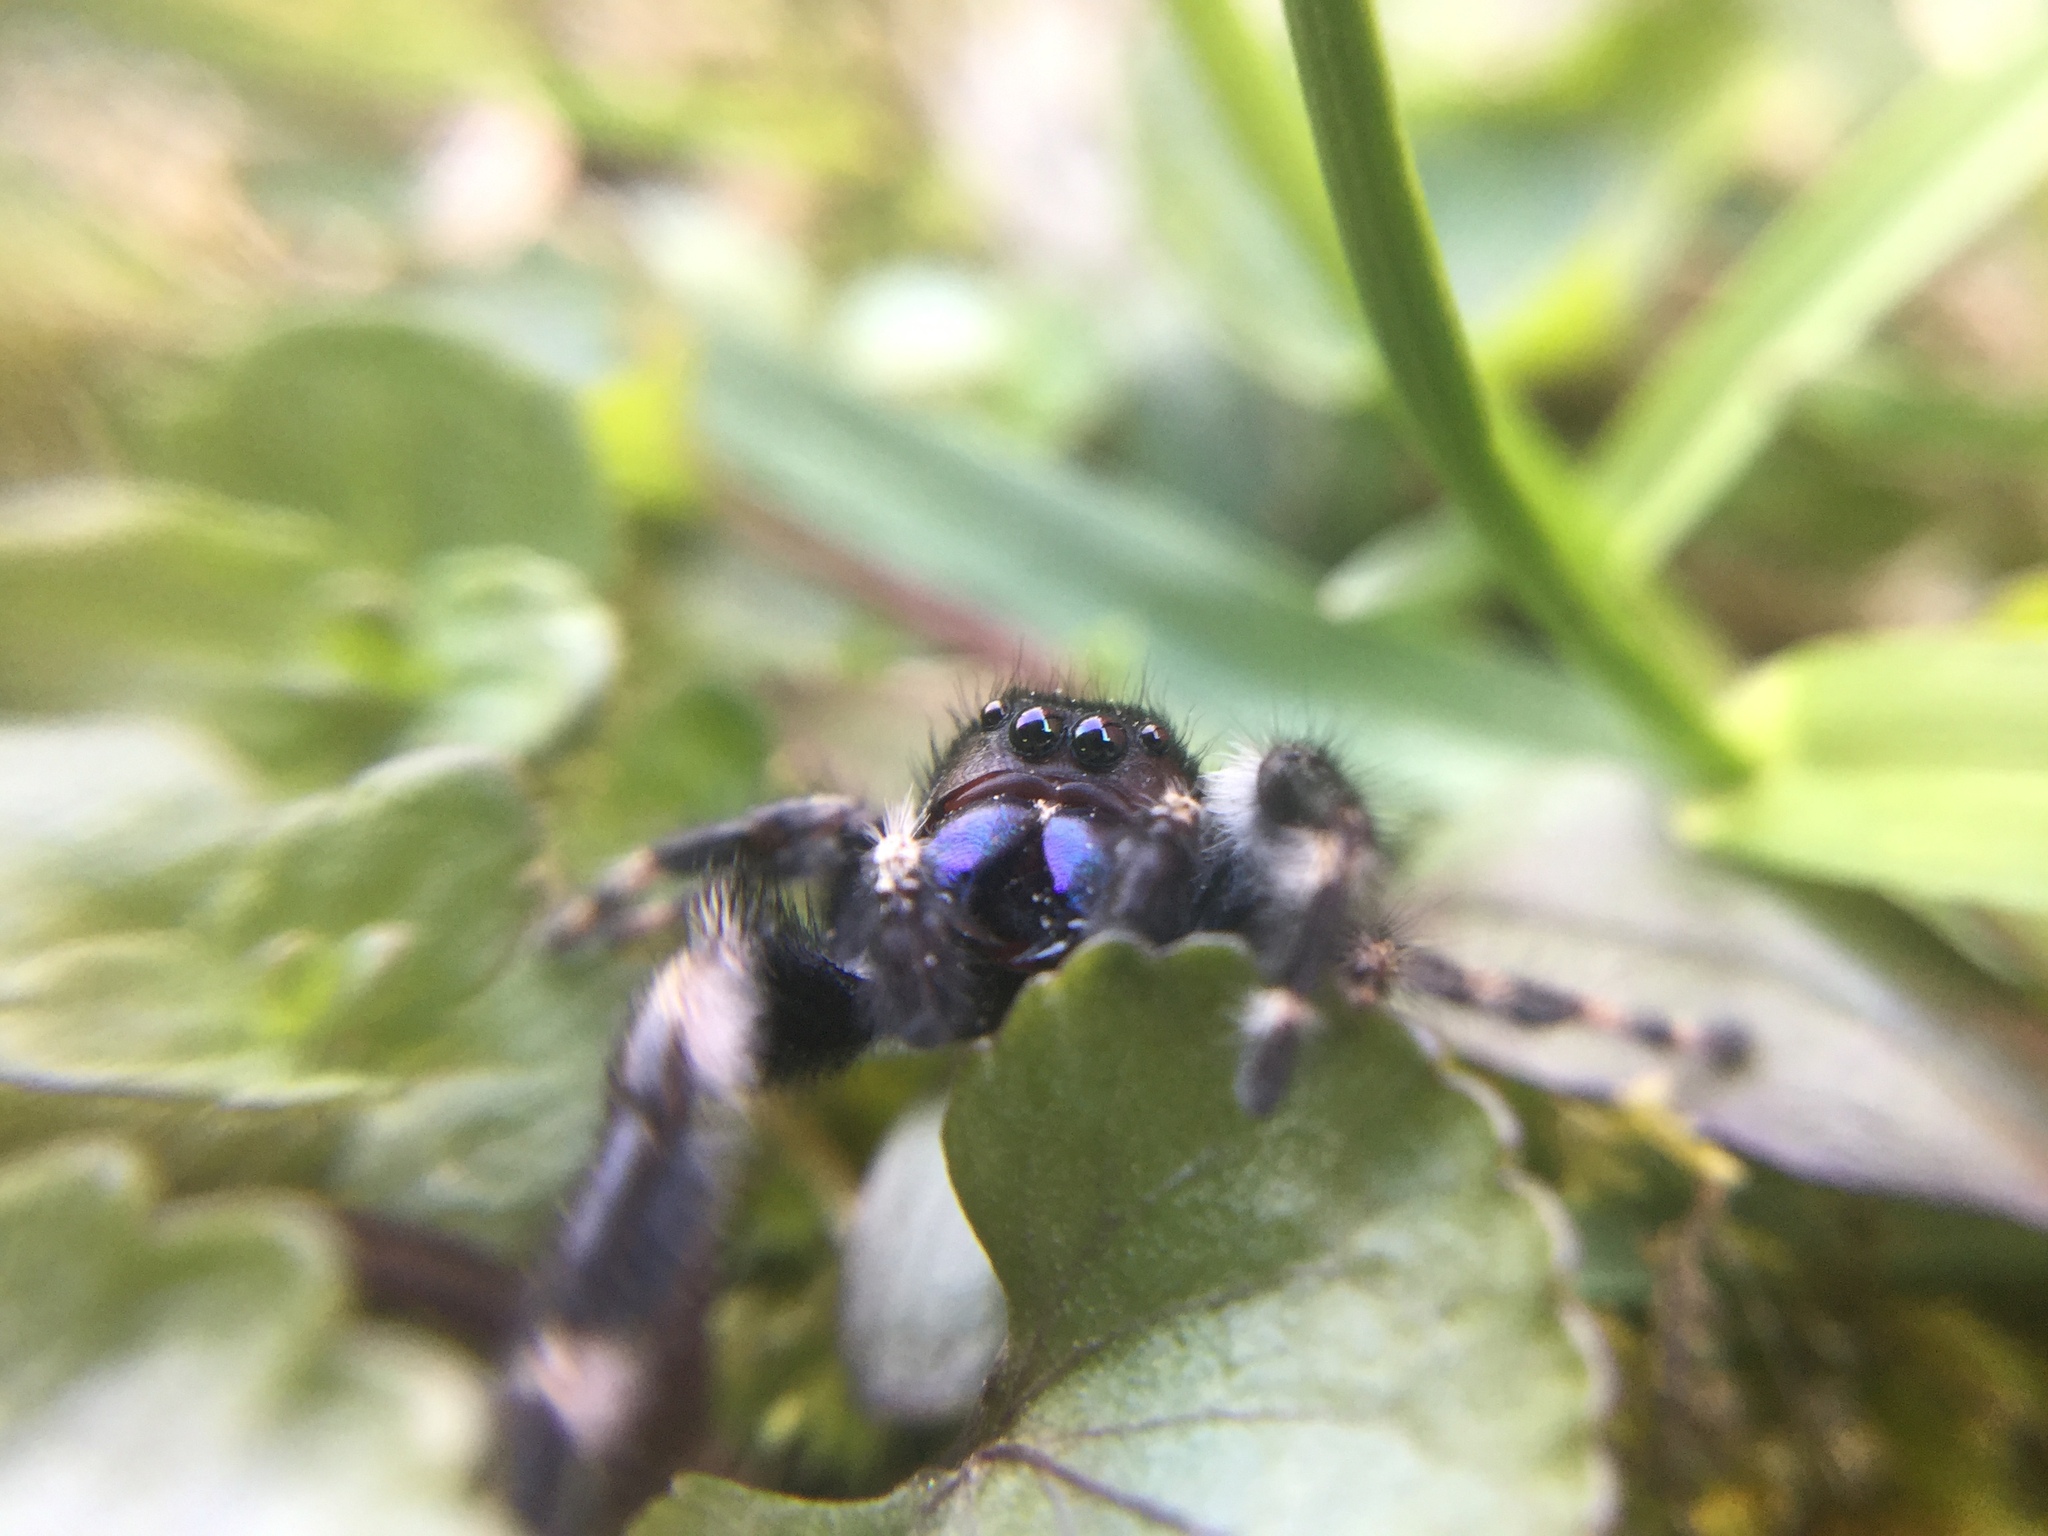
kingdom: Animalia
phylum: Arthropoda
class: Arachnida
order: Araneae
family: Salticidae
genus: Phidippus
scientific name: Phidippus audax
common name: Bold jumper
